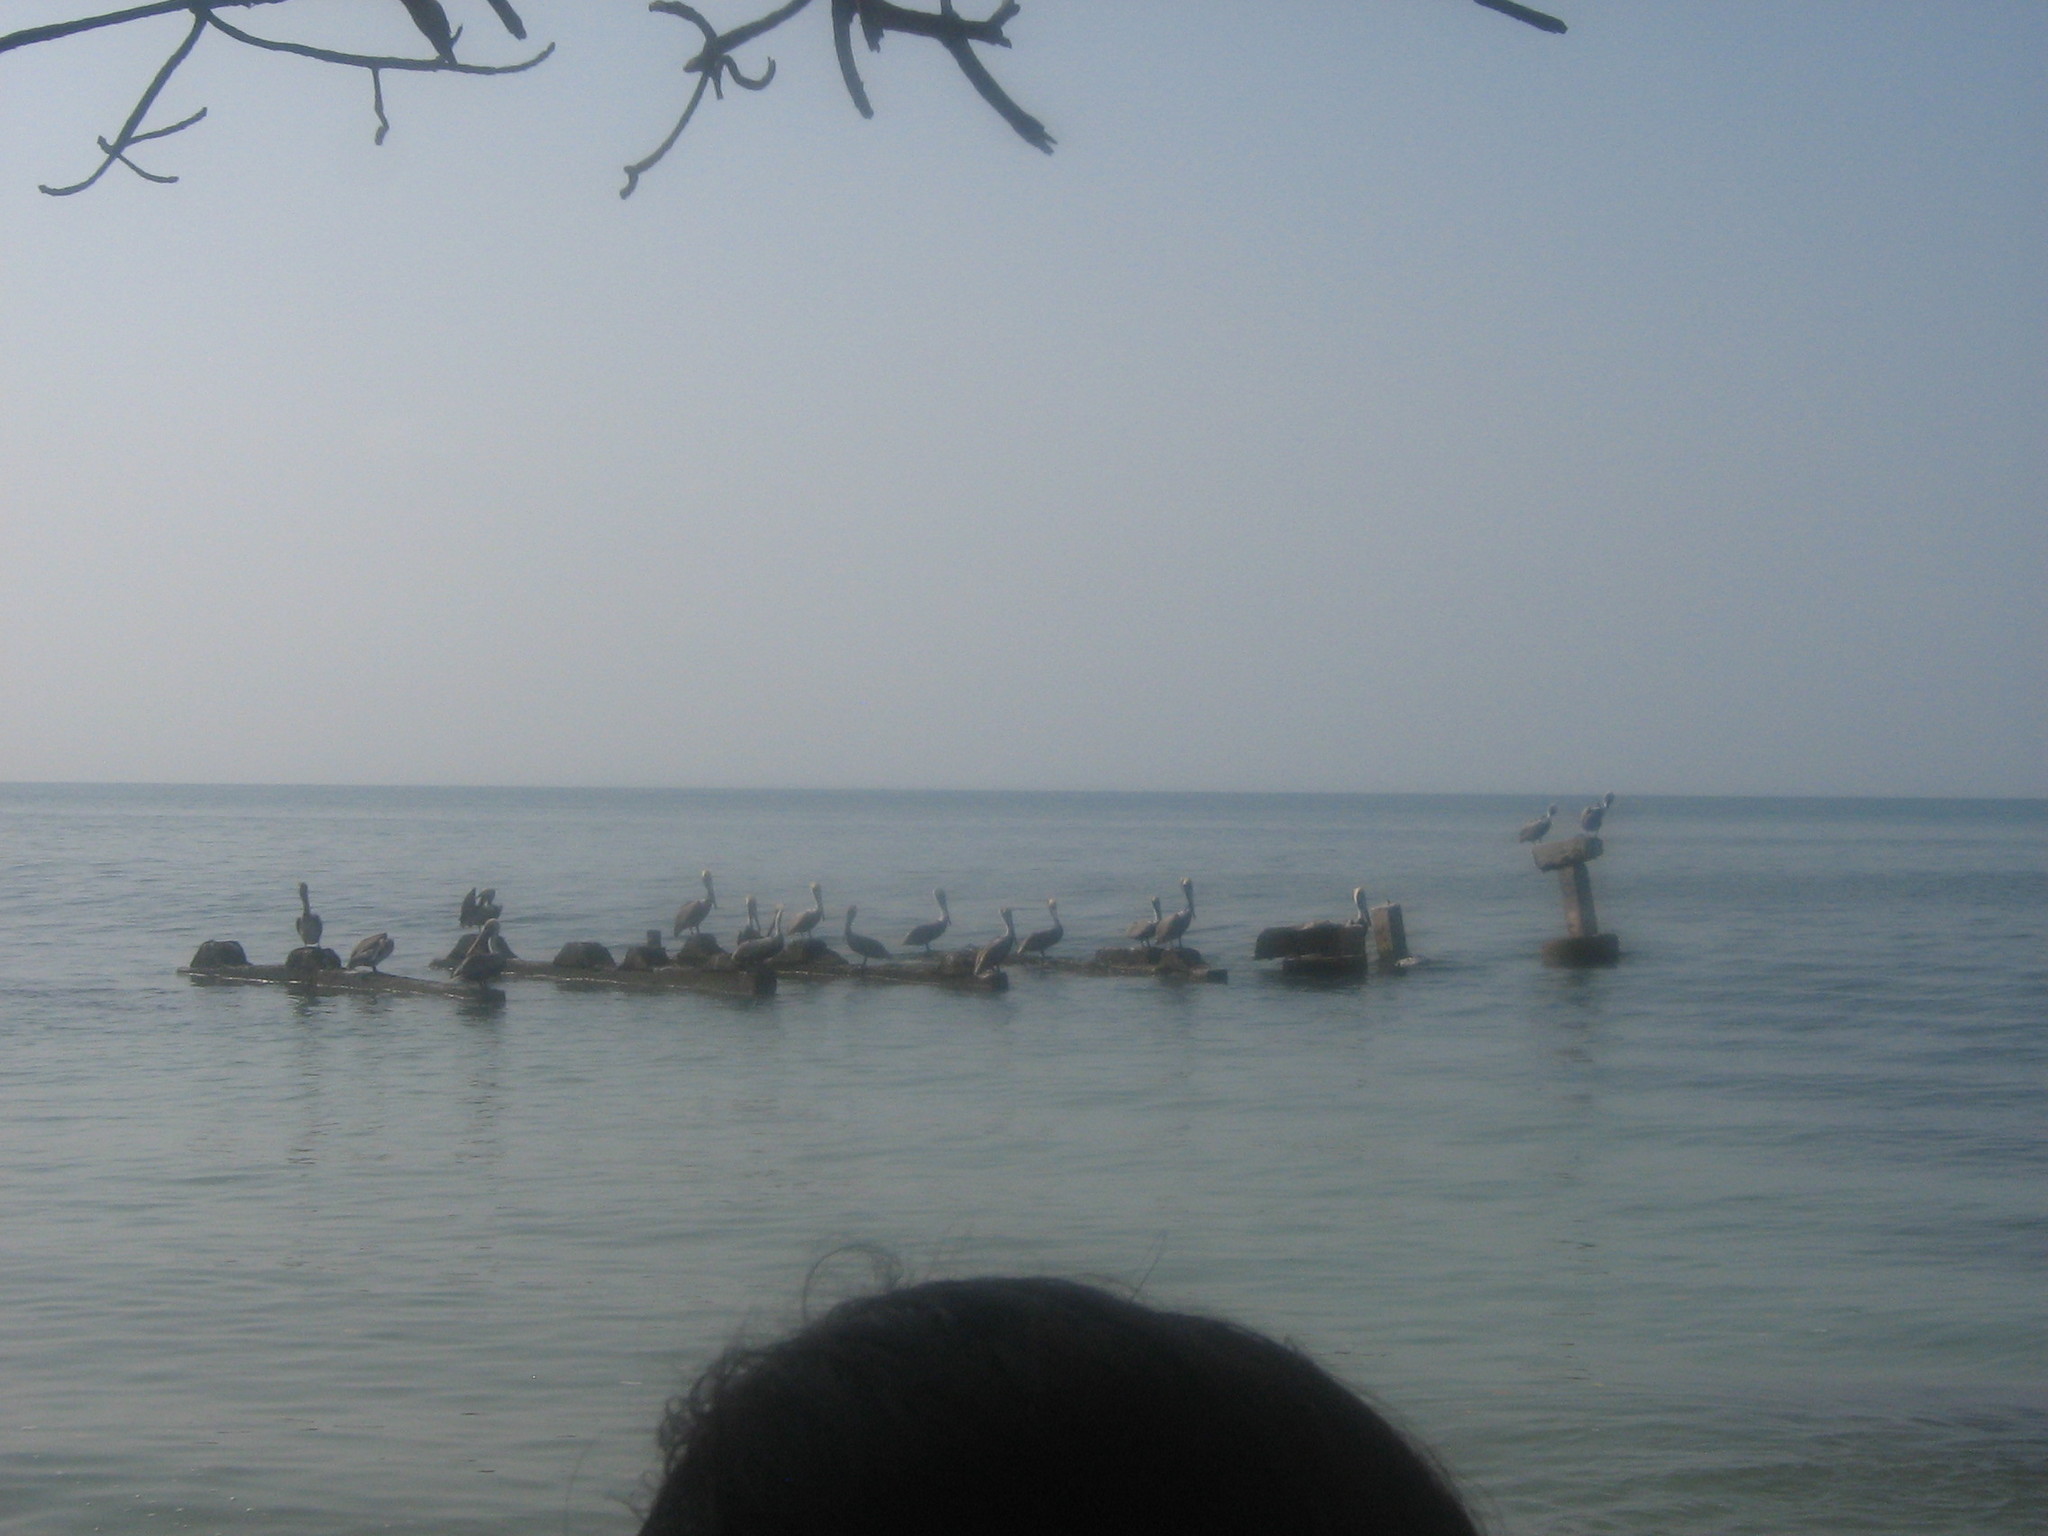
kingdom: Animalia
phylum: Chordata
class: Aves
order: Pelecaniformes
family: Pelecanidae
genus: Pelecanus
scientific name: Pelecanus occidentalis
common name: Brown pelican
